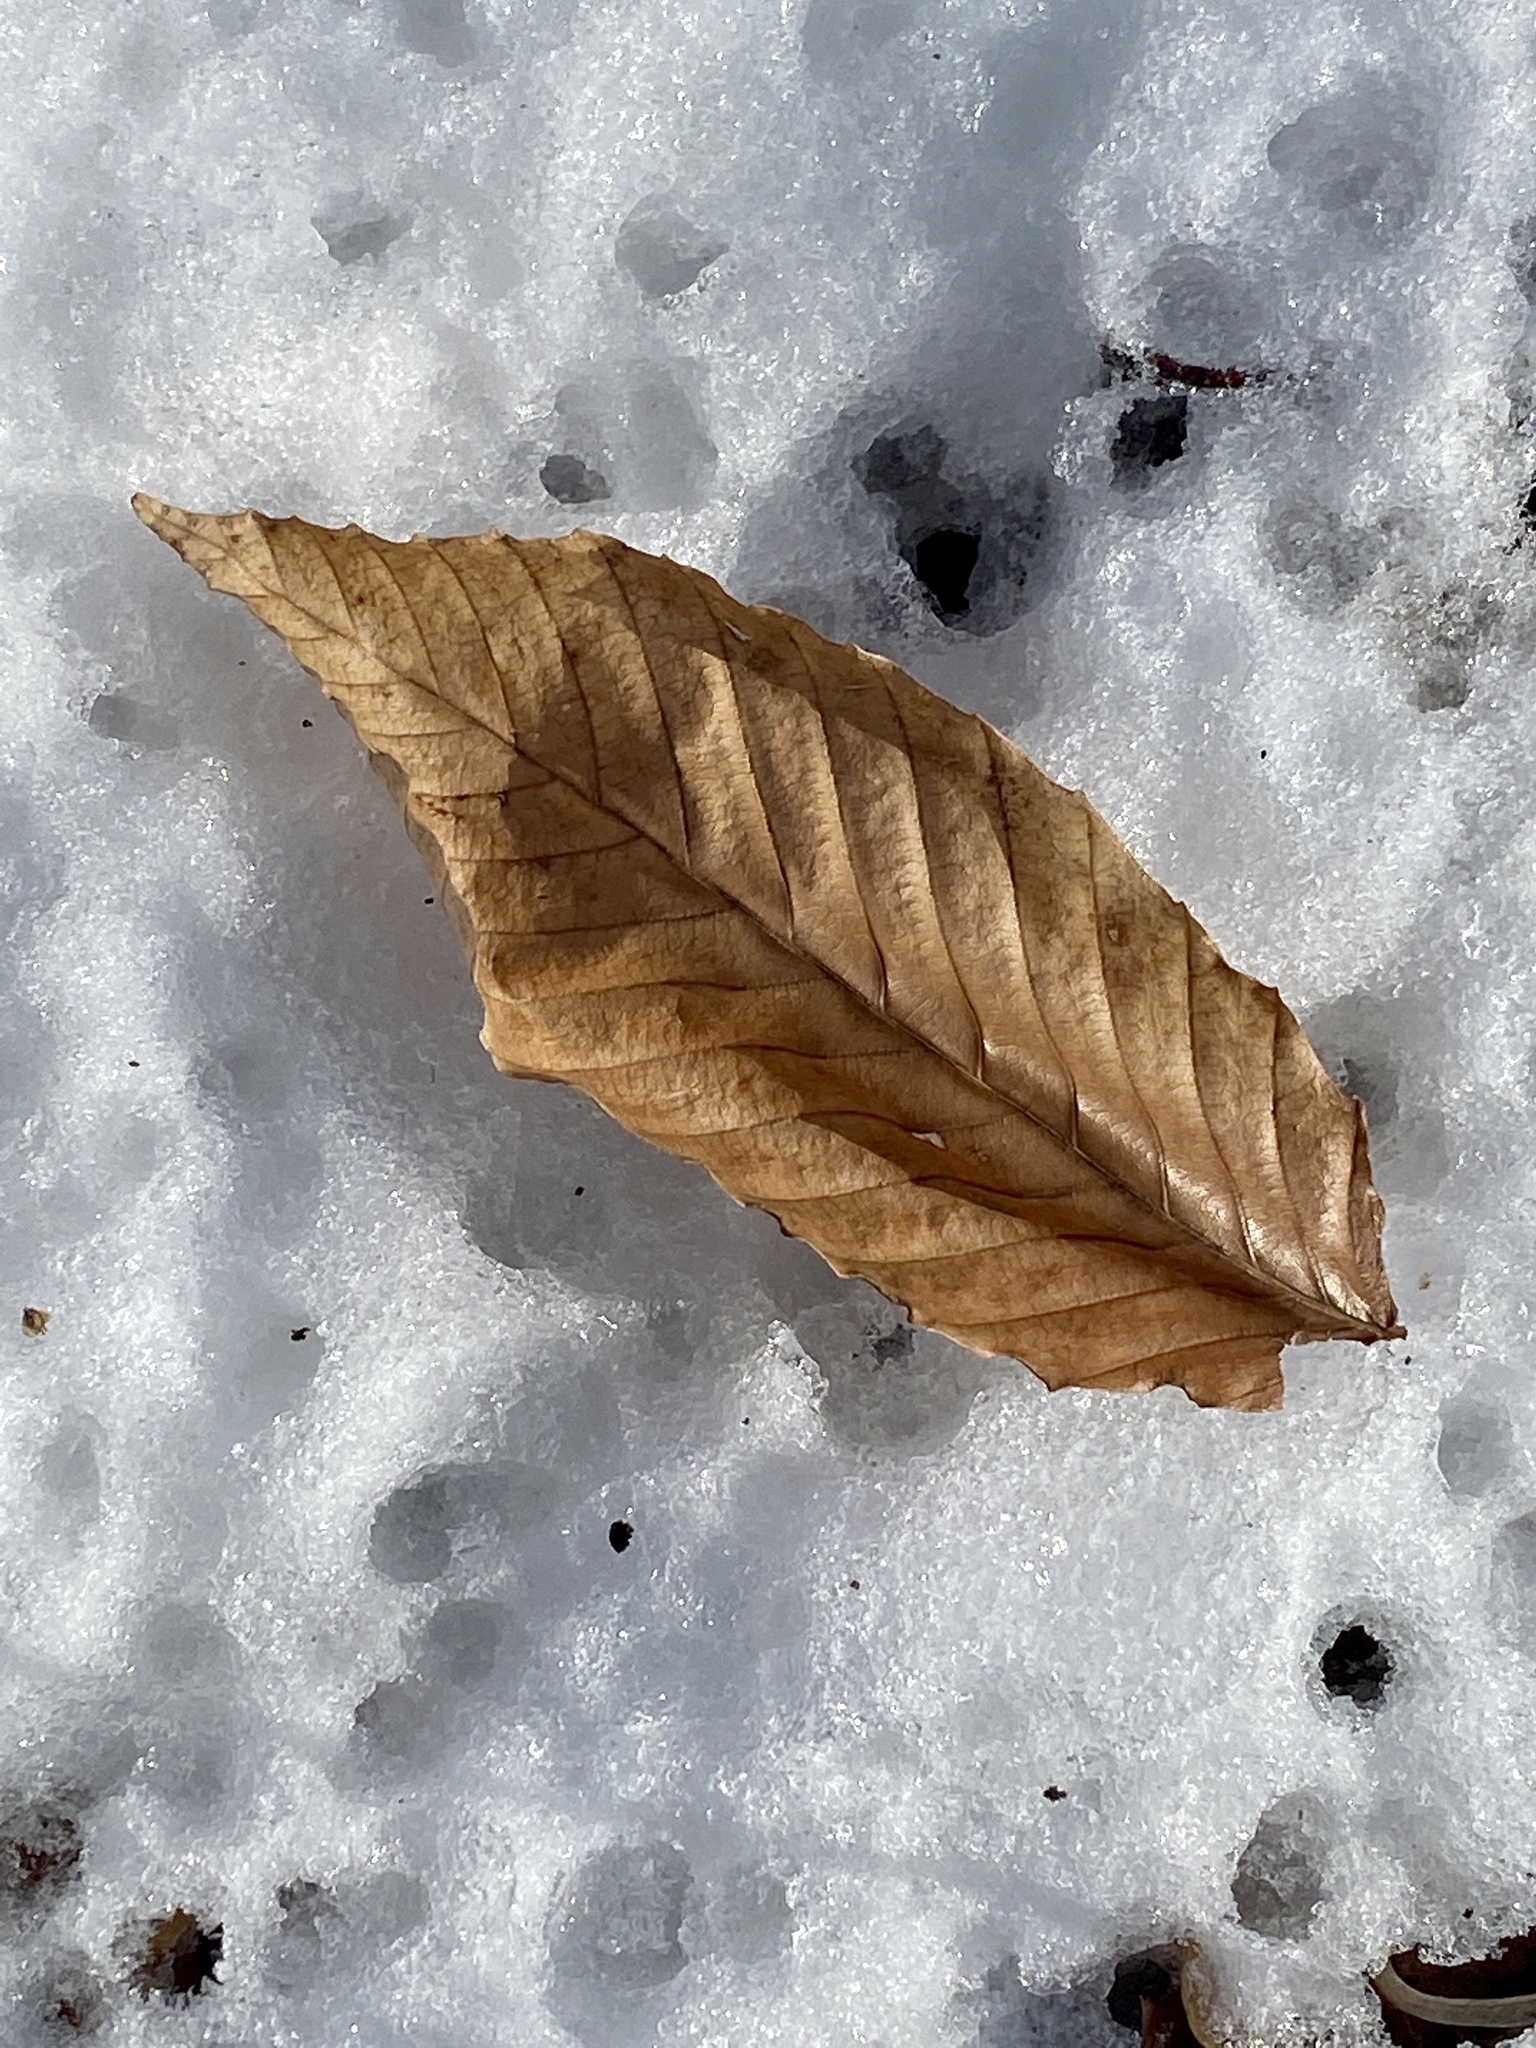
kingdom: Plantae
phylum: Tracheophyta
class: Magnoliopsida
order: Fagales
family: Fagaceae
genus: Fagus
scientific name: Fagus grandifolia
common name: American beech
